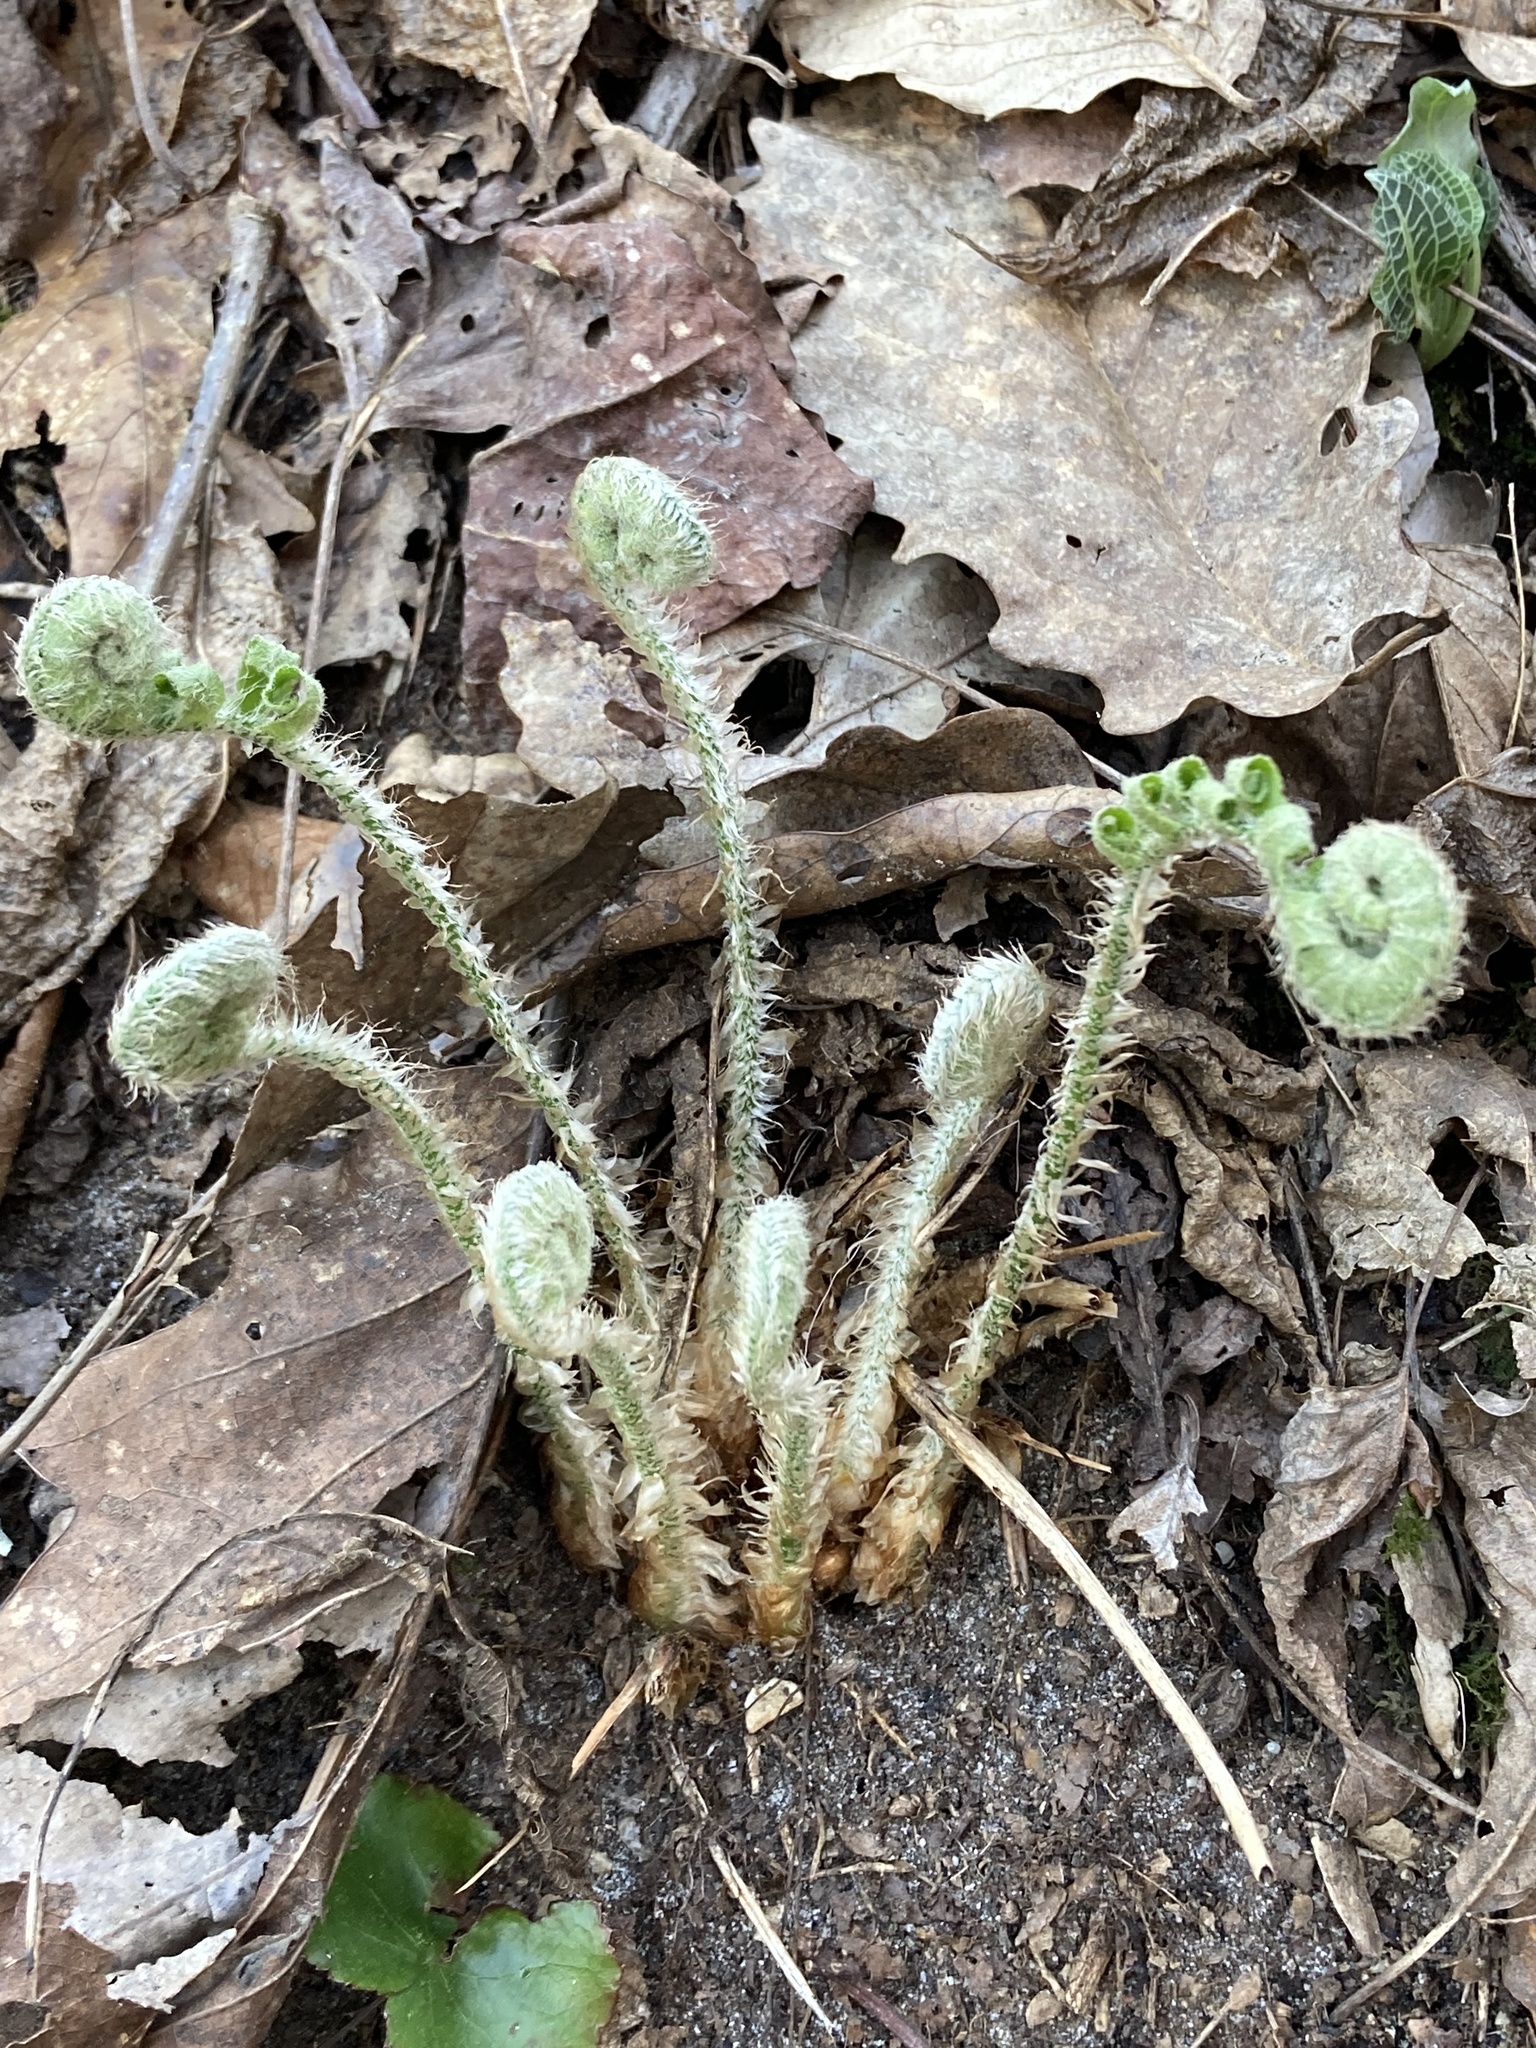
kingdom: Plantae
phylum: Tracheophyta
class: Polypodiopsida
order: Polypodiales
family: Dryopteridaceae
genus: Polystichum
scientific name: Polystichum acrostichoides
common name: Christmas fern
